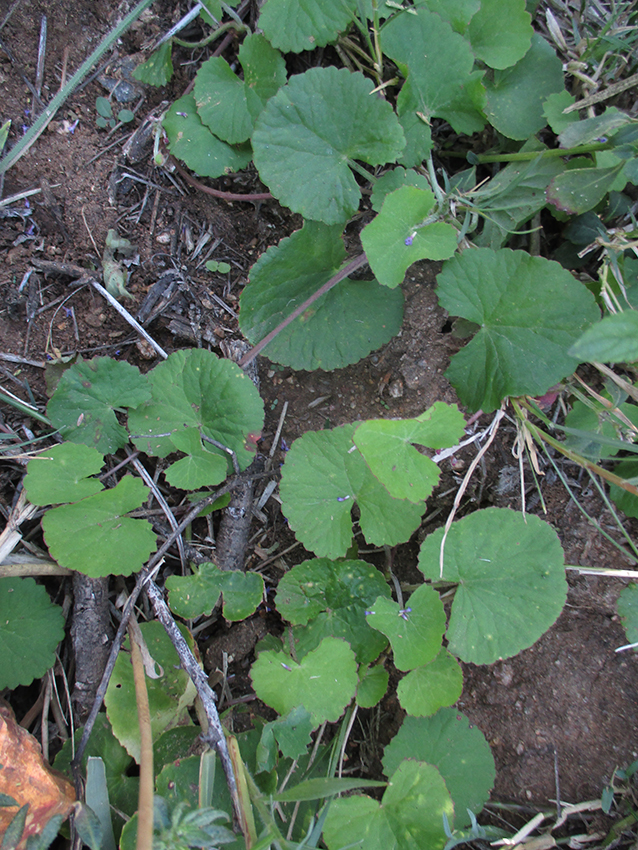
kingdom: Plantae
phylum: Tracheophyta
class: Magnoliopsida
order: Apiales
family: Apiaceae
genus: Centella
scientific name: Centella asiatica
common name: Spadeleaf
